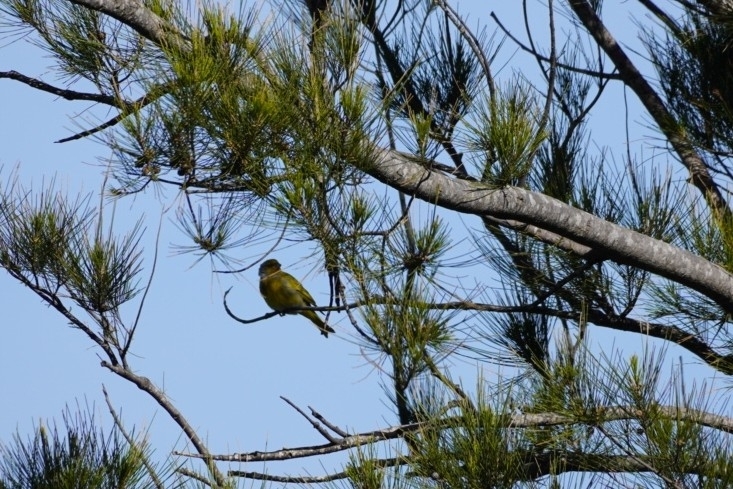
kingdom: Animalia
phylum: Chordata
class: Aves
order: Passeriformes
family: Fringillidae
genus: Serinus
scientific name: Serinus canicollis
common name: Cape canary
